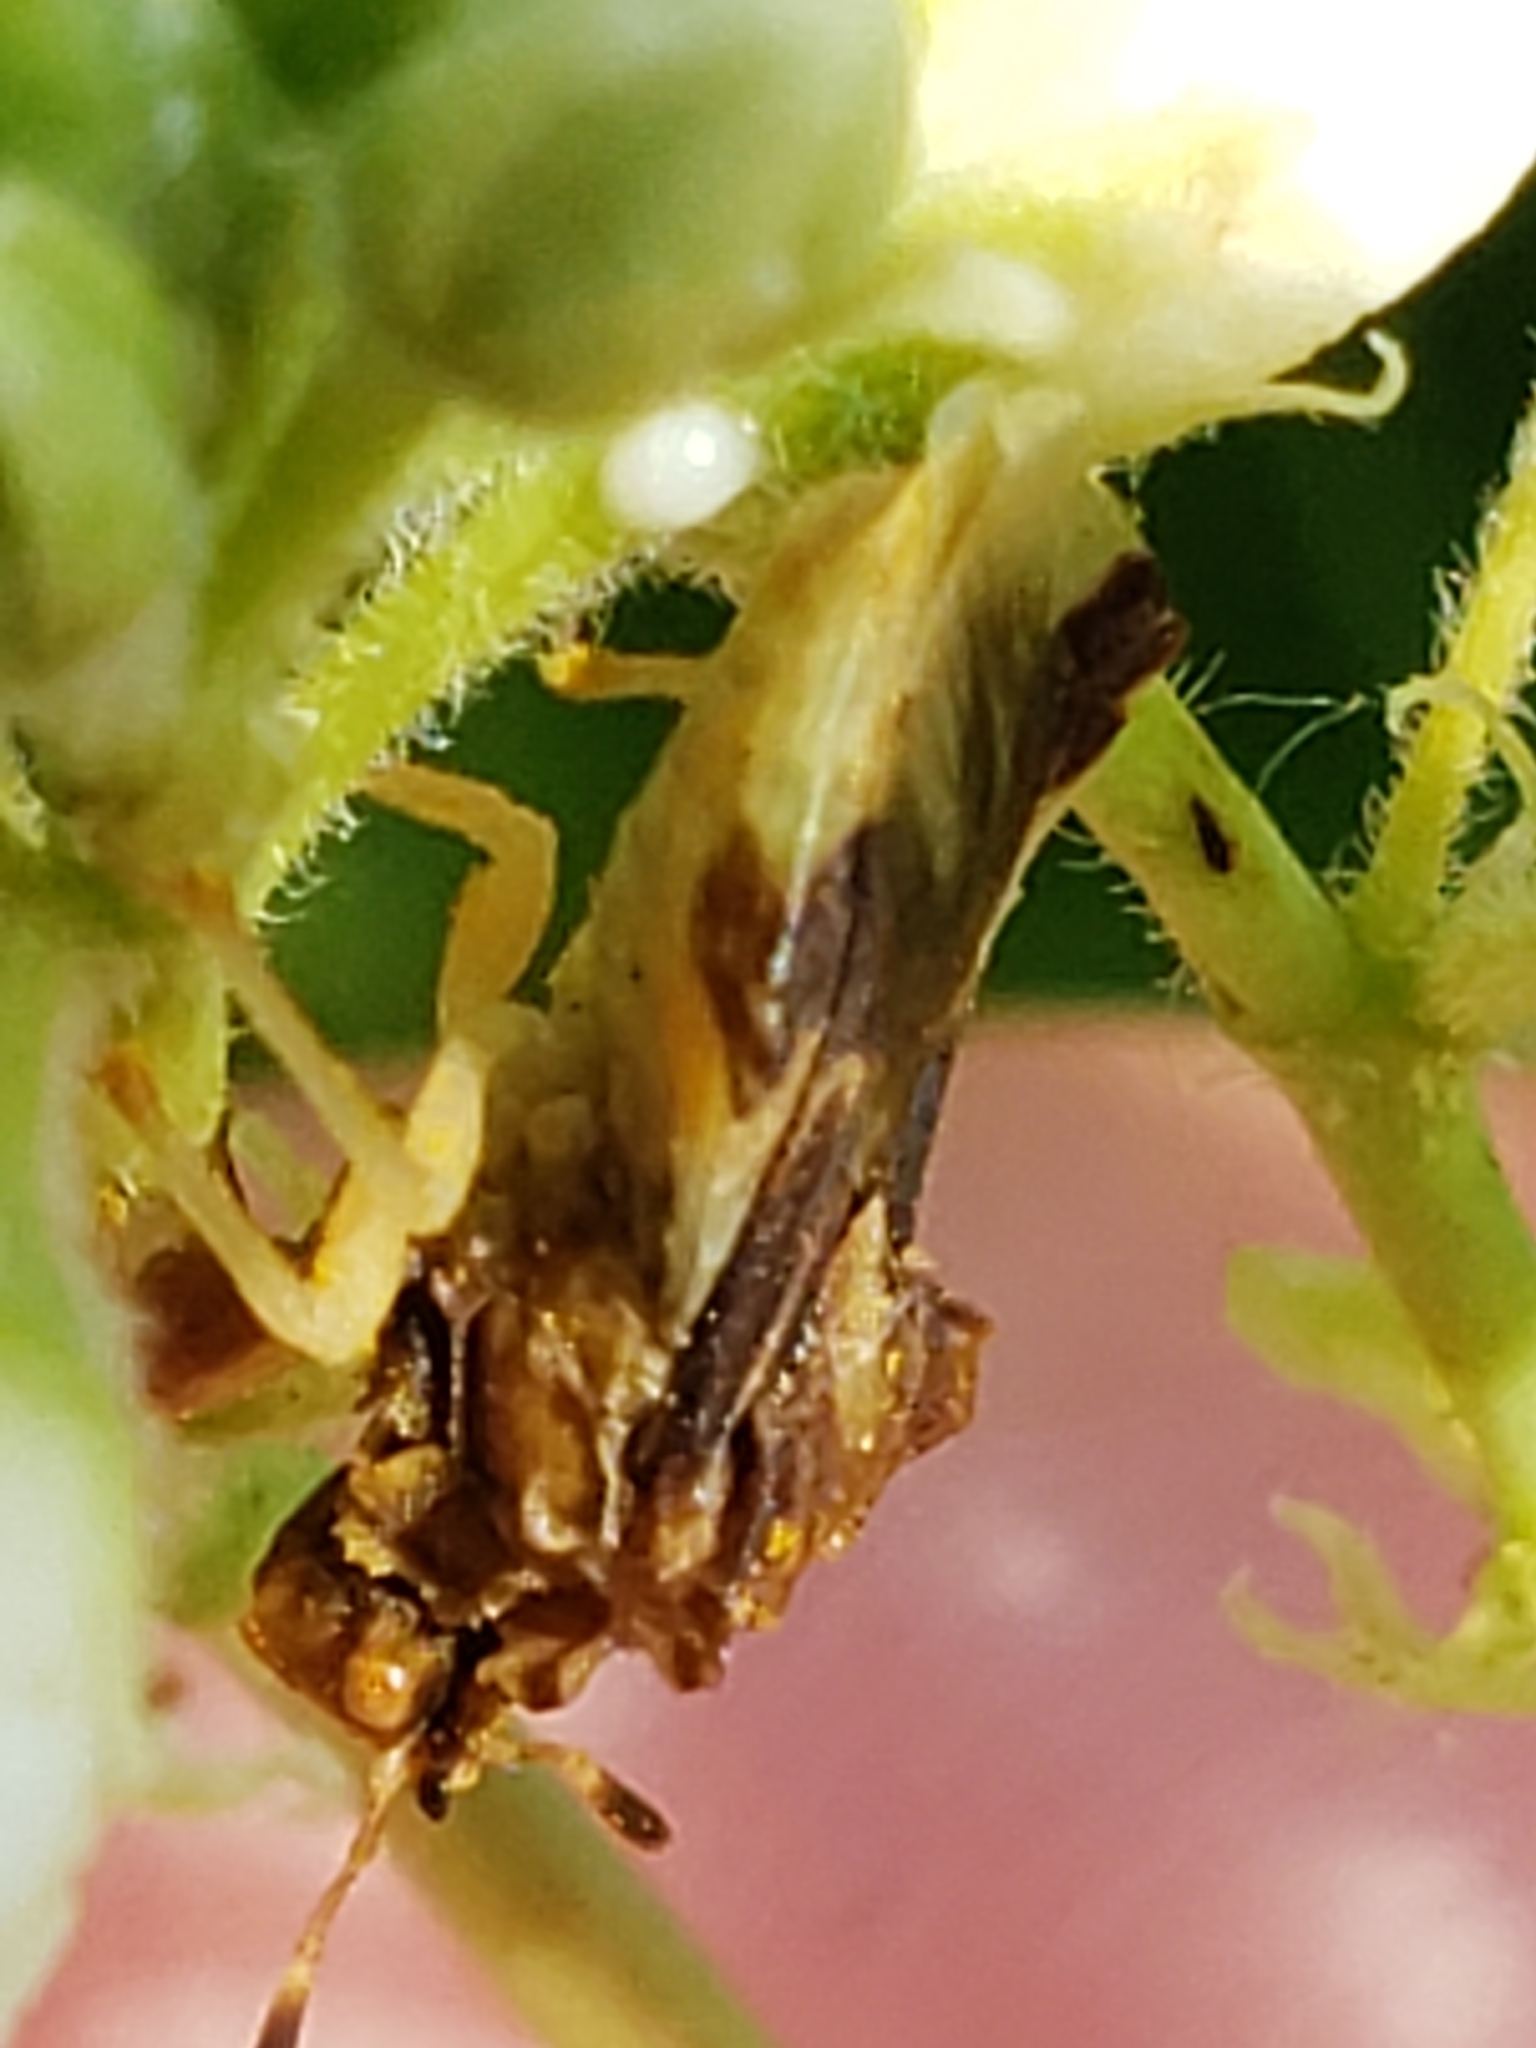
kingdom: Animalia
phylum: Arthropoda
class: Insecta
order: Hemiptera
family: Reduviidae
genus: Phymata
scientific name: Phymata fasciata
